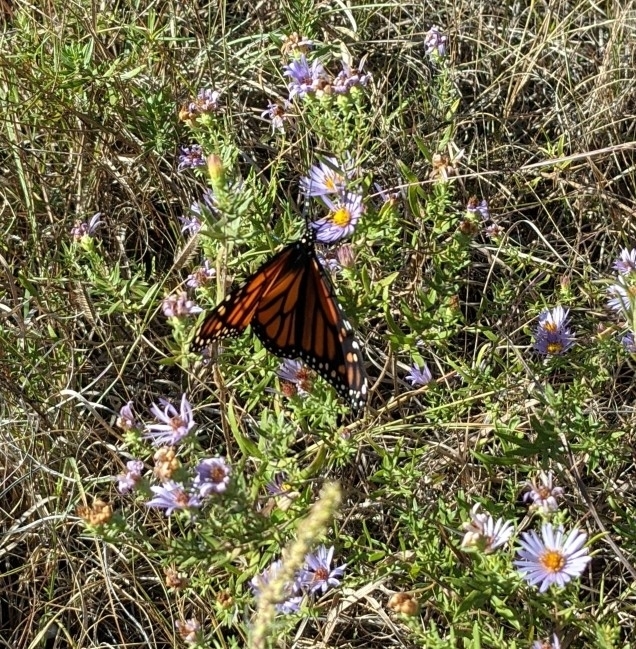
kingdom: Animalia
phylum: Arthropoda
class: Insecta
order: Lepidoptera
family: Nymphalidae
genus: Danaus
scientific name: Danaus plexippus
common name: Monarch
